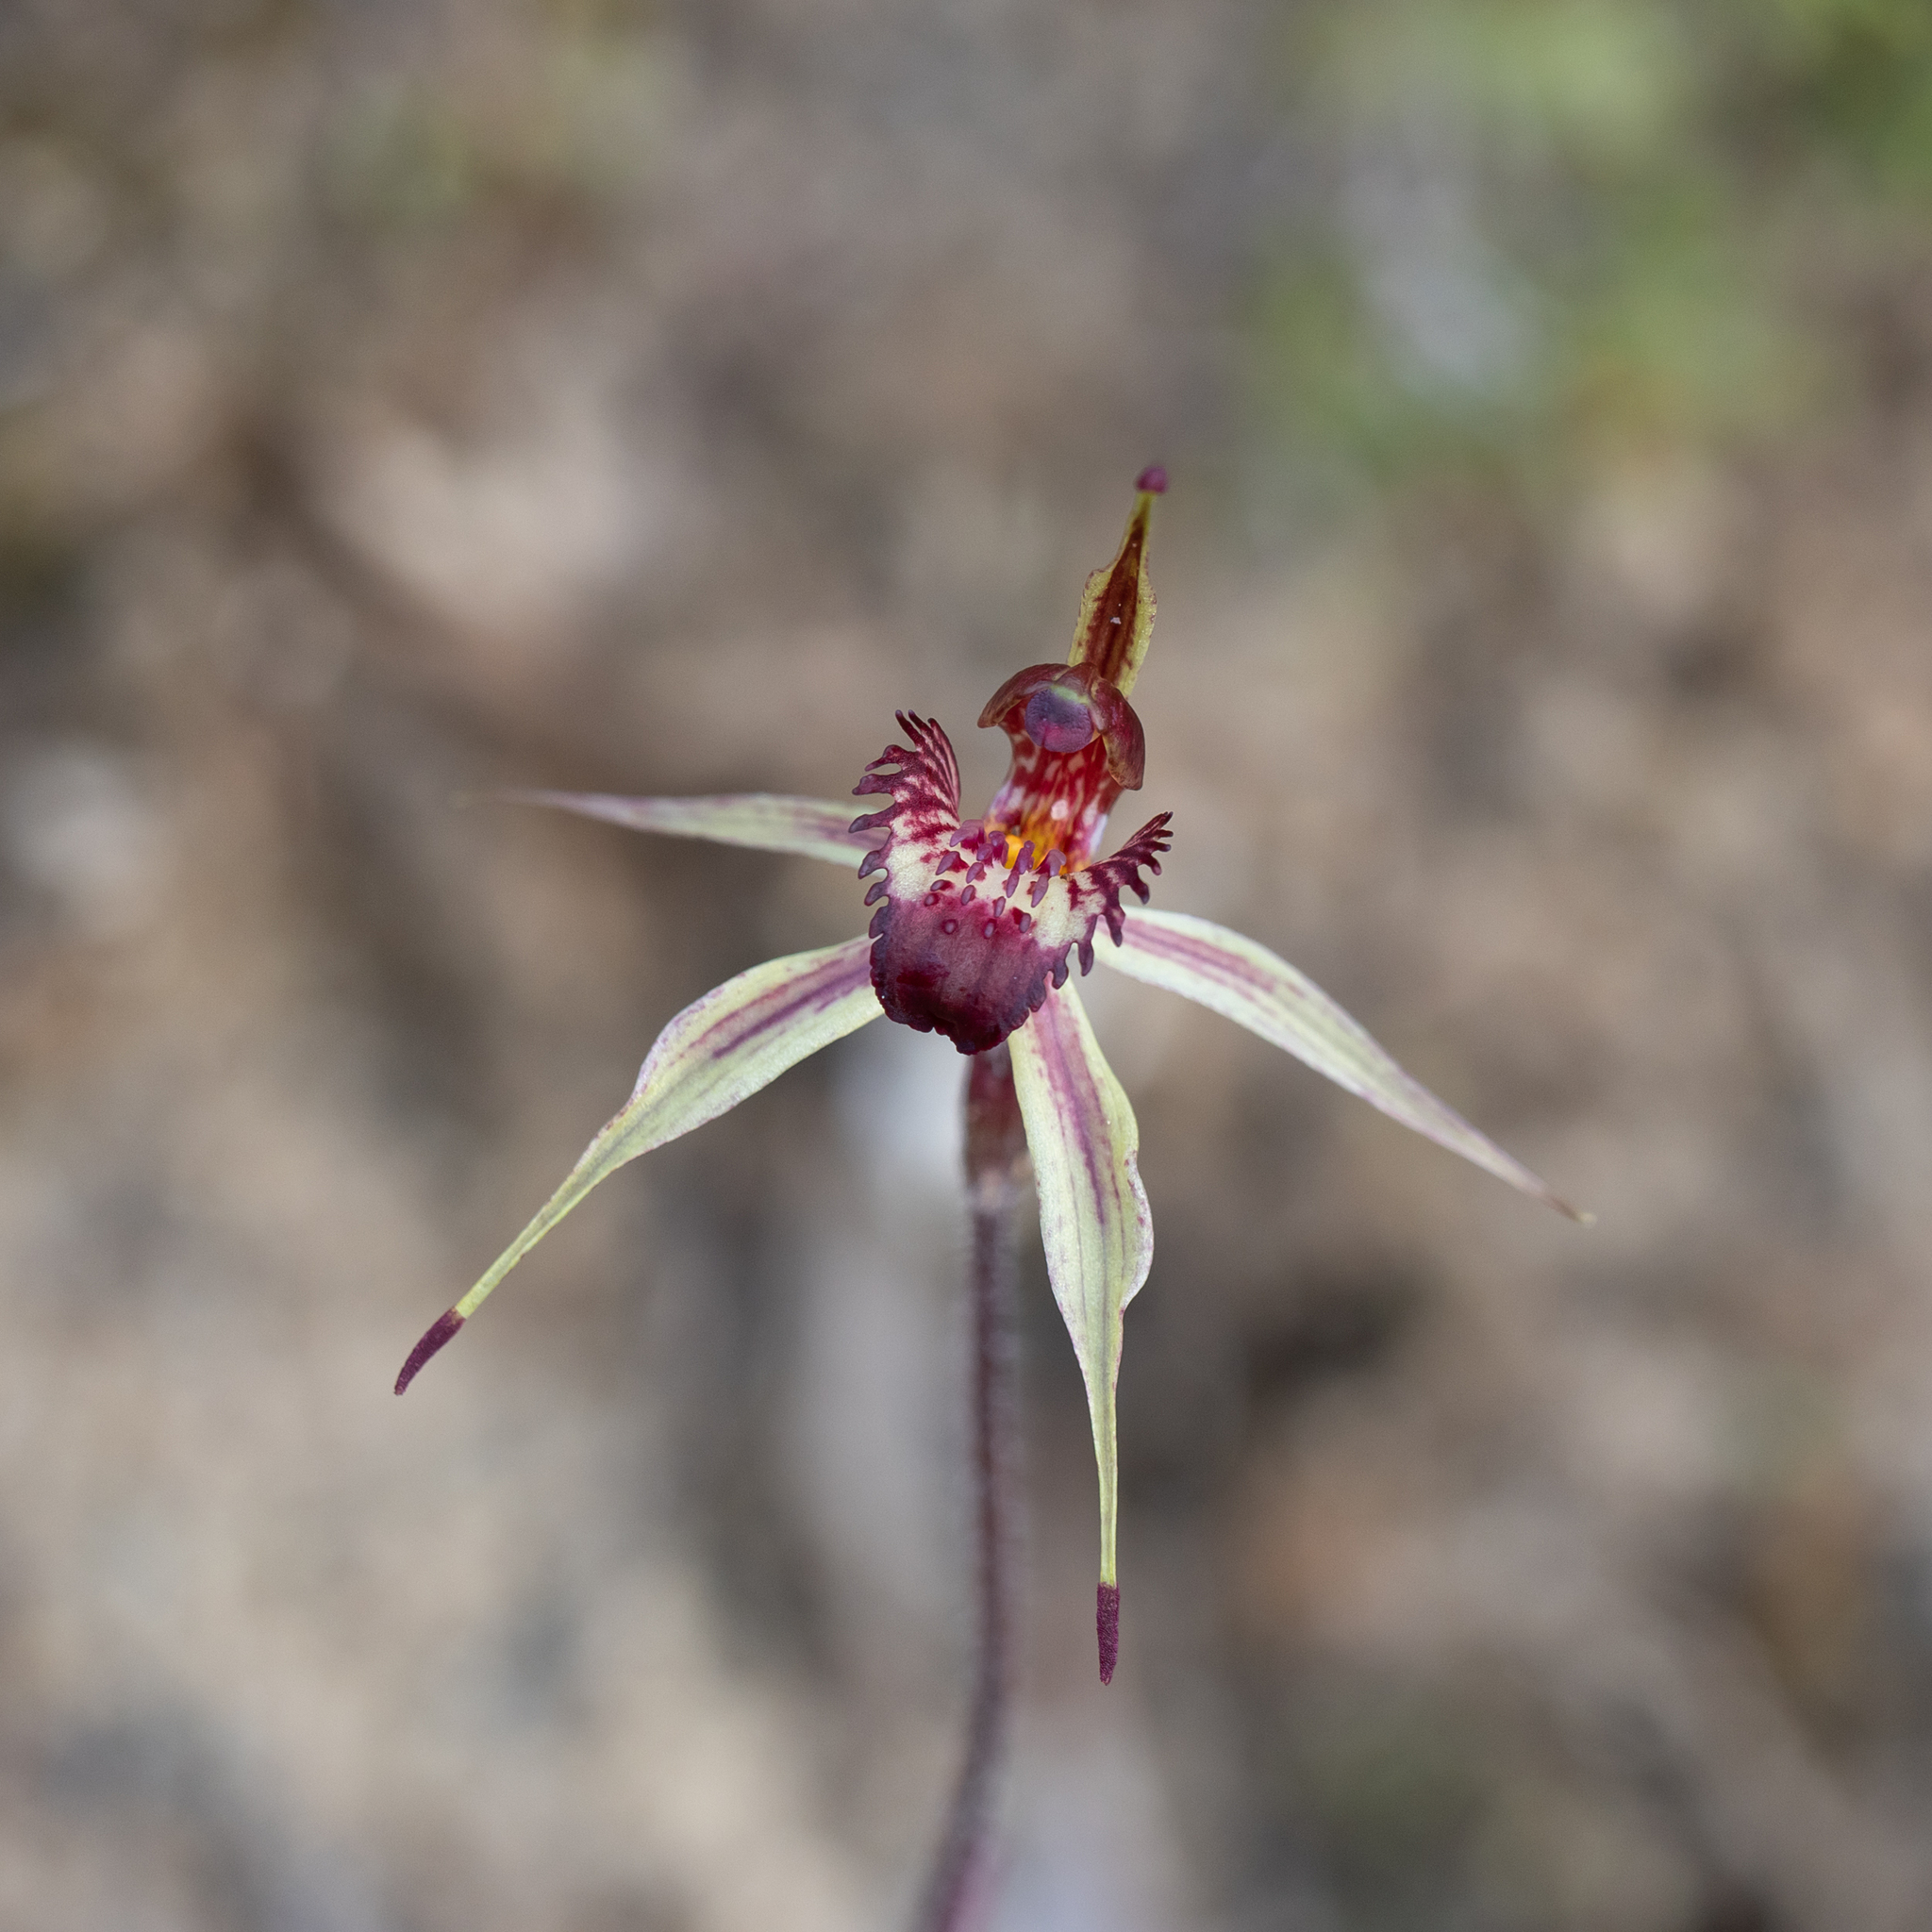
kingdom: Plantae
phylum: Tracheophyta
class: Liliopsida
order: Asparagales
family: Orchidaceae
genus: Caladenia
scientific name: Caladenia reticulata
